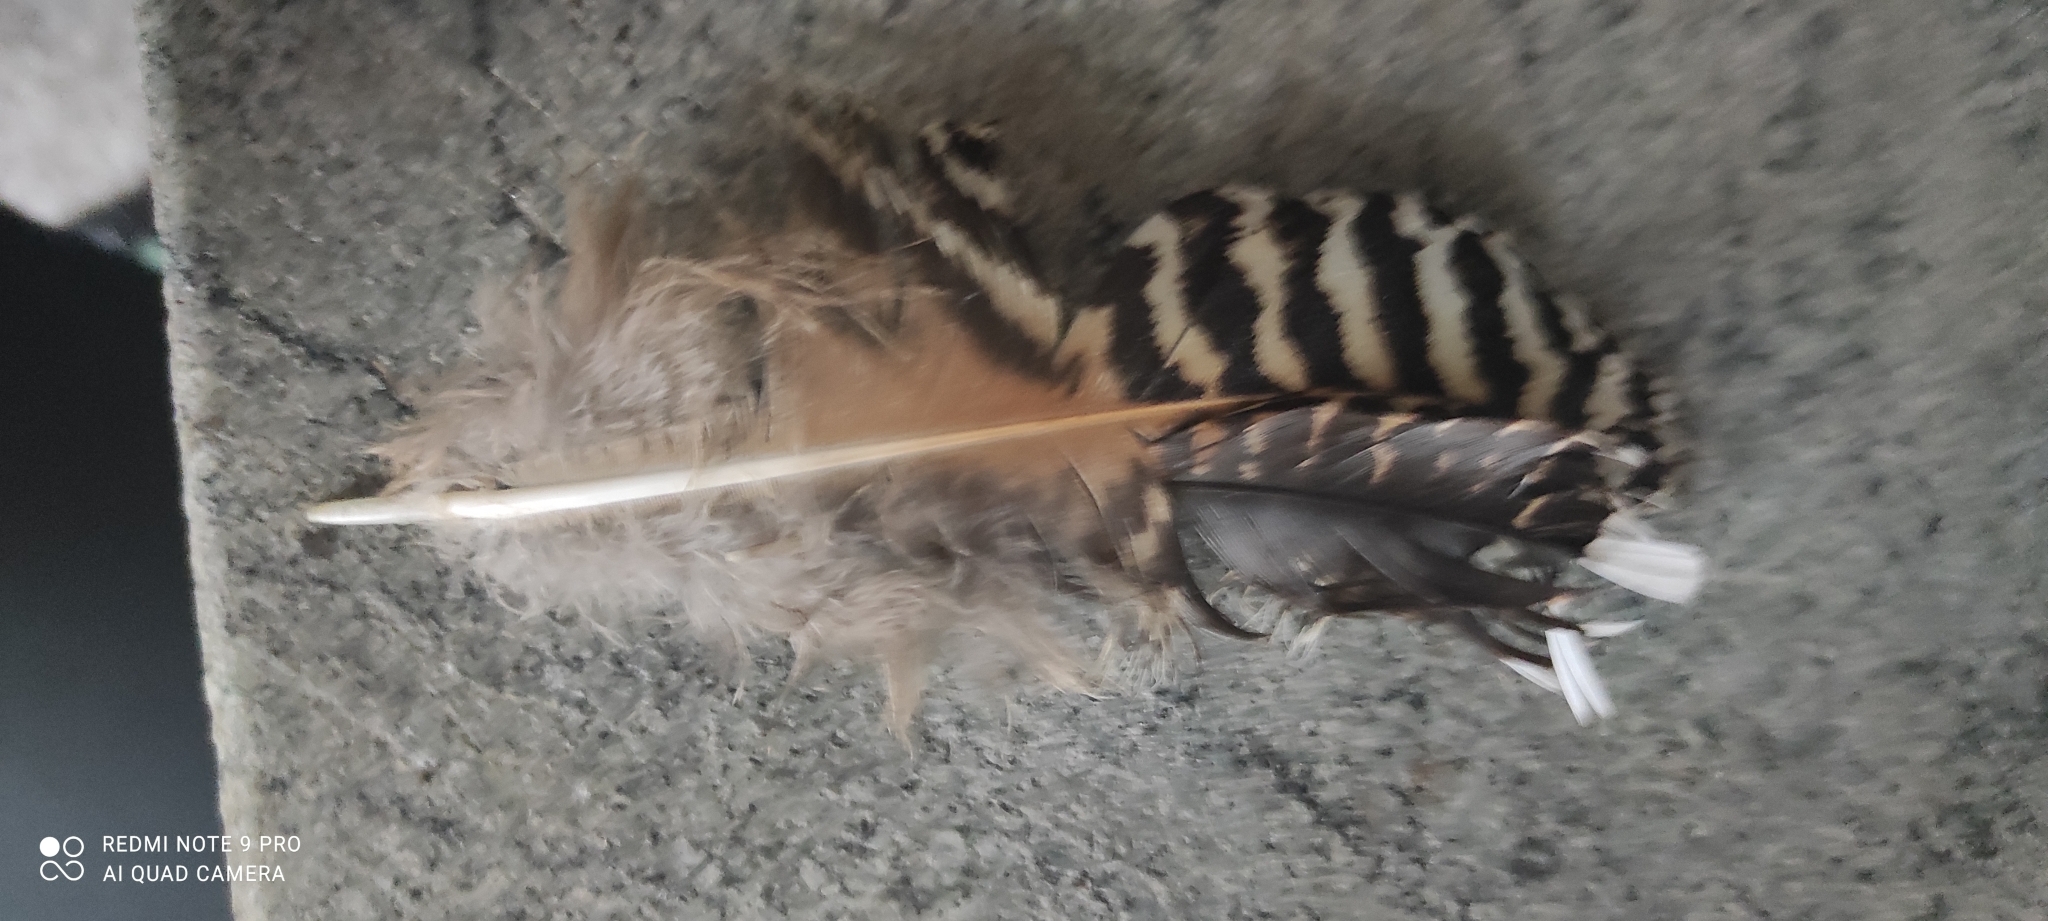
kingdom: Animalia
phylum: Chordata
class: Aves
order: Charadriiformes
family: Scolopacidae
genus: Scolopax
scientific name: Scolopax rusticola
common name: Eurasian woodcock
